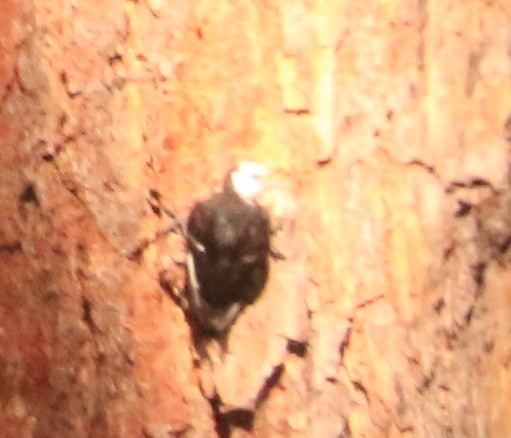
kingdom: Animalia
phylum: Chordata
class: Aves
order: Piciformes
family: Picidae
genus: Leuconotopicus
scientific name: Leuconotopicus albolarvatus
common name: White-headed woodpecker
